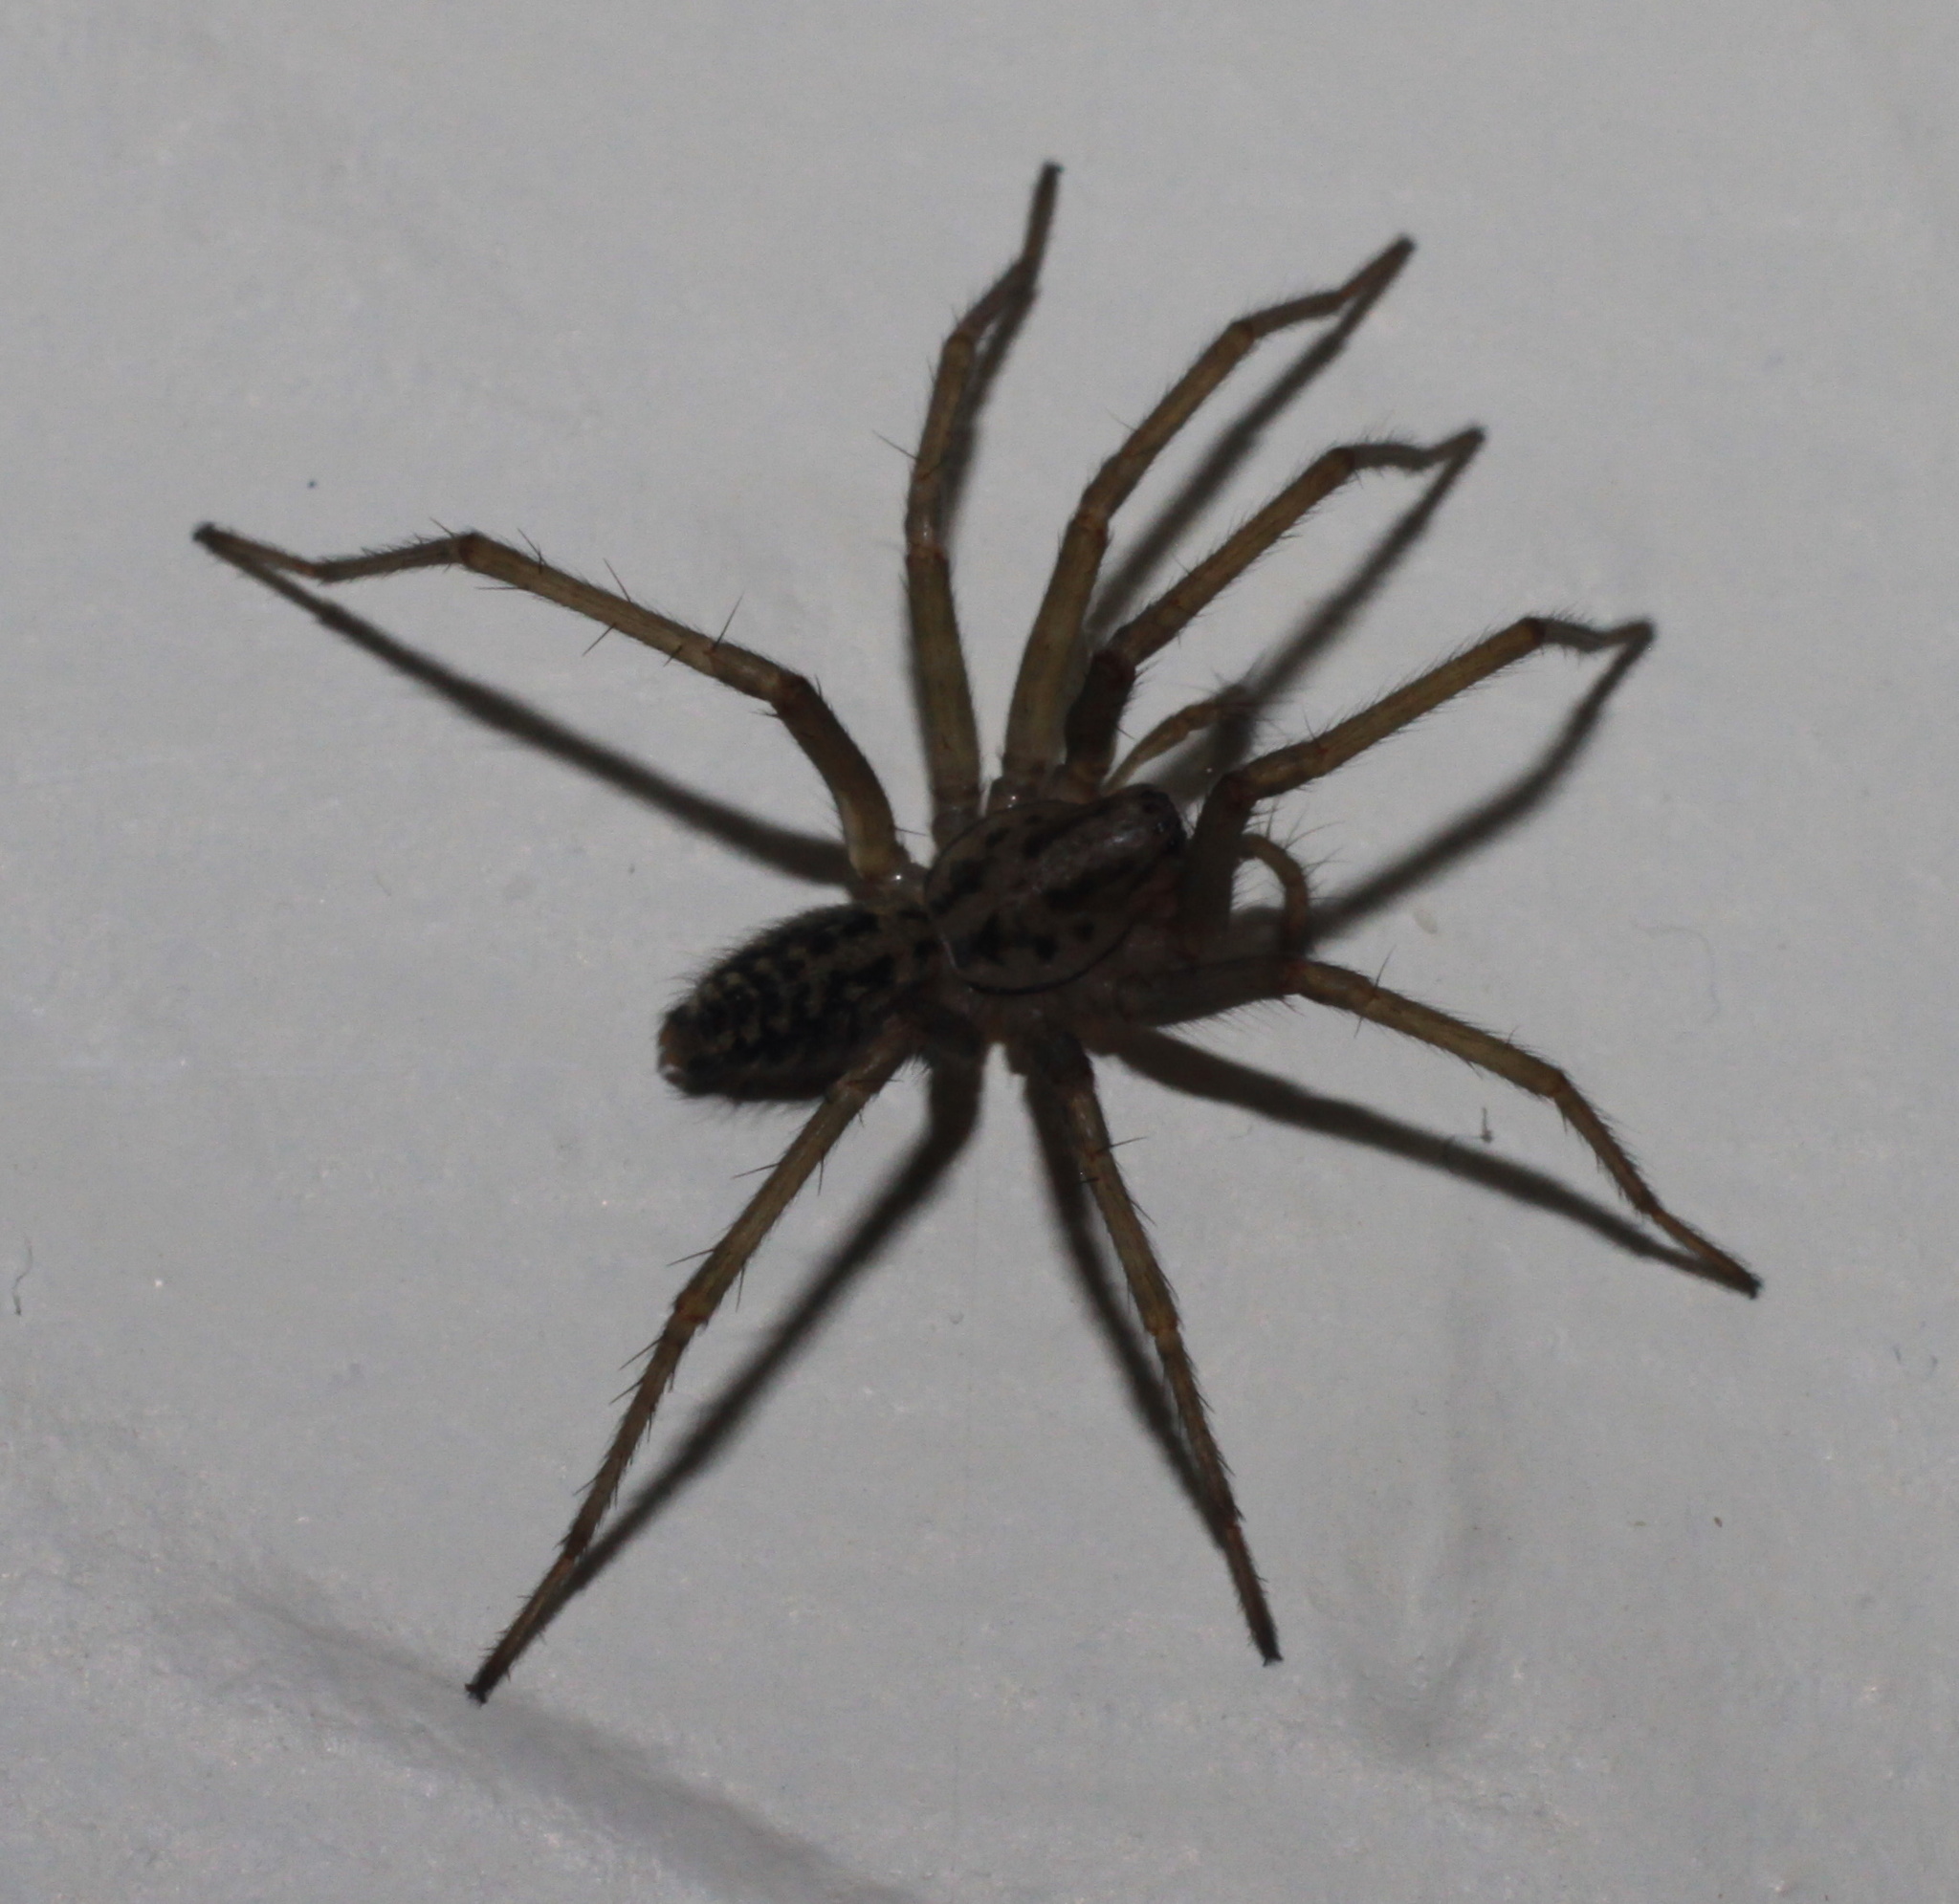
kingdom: Animalia
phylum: Arthropoda
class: Arachnida
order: Araneae
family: Agelenidae
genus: Eratigena
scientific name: Eratigena
